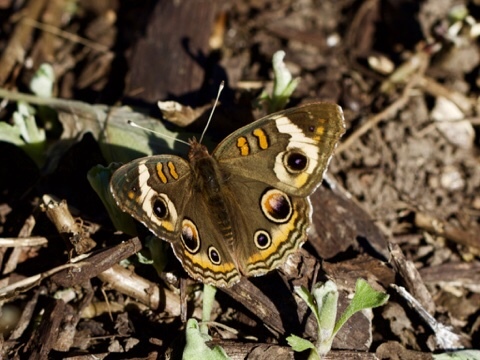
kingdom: Animalia
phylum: Arthropoda
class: Insecta
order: Lepidoptera
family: Nymphalidae
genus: Junonia
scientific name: Junonia coenia
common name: Common buckeye
